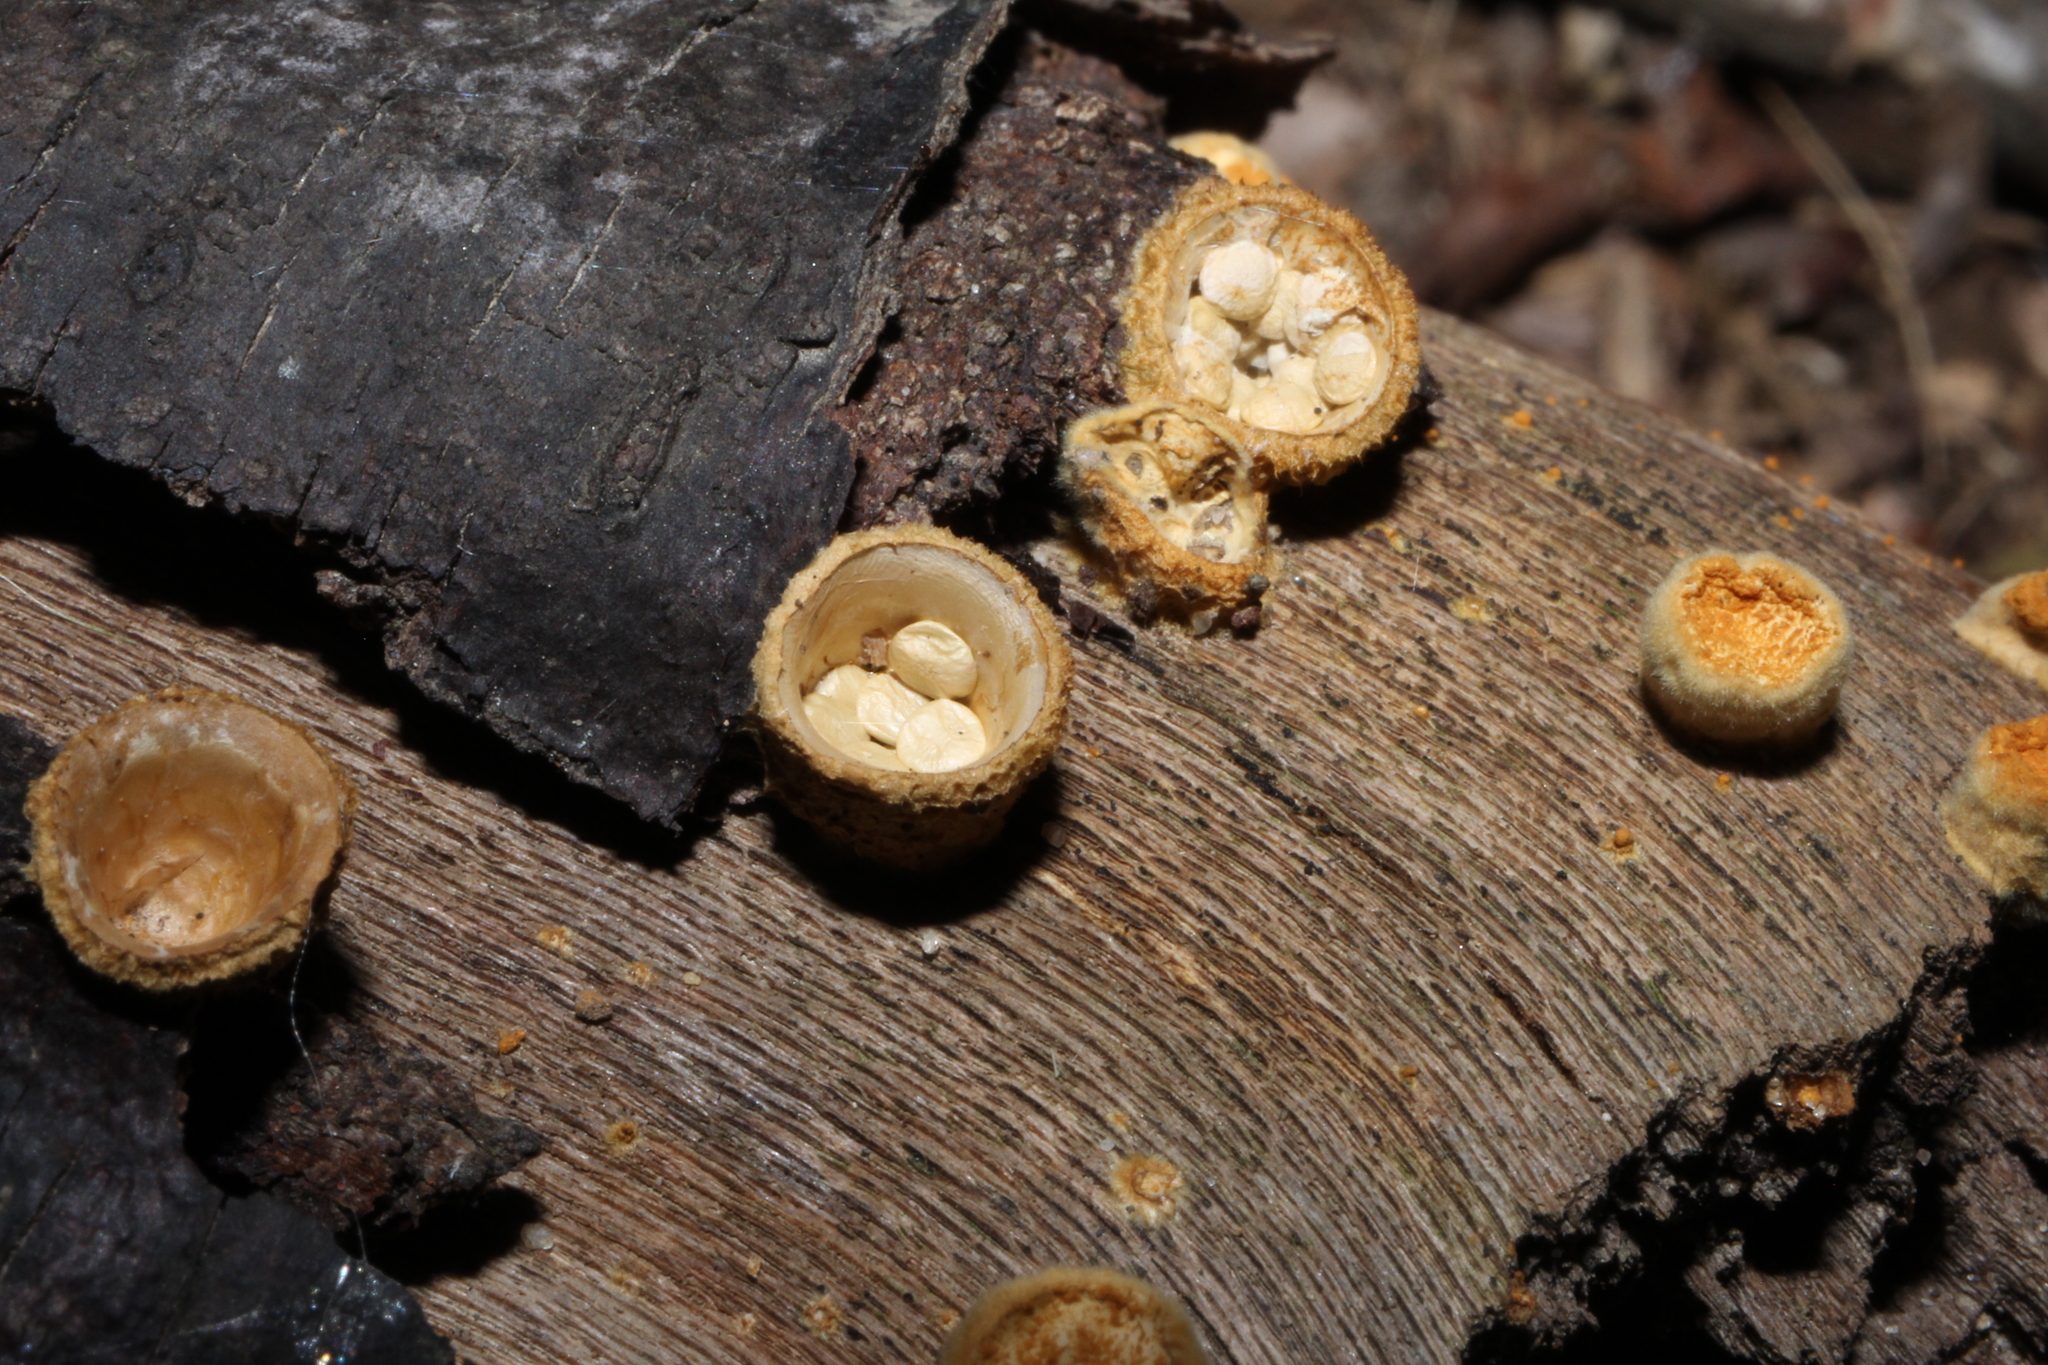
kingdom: Fungi
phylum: Basidiomycota
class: Agaricomycetes
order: Agaricales
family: Nidulariaceae
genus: Crucibulum
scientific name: Crucibulum laeve
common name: Common bird's nest
